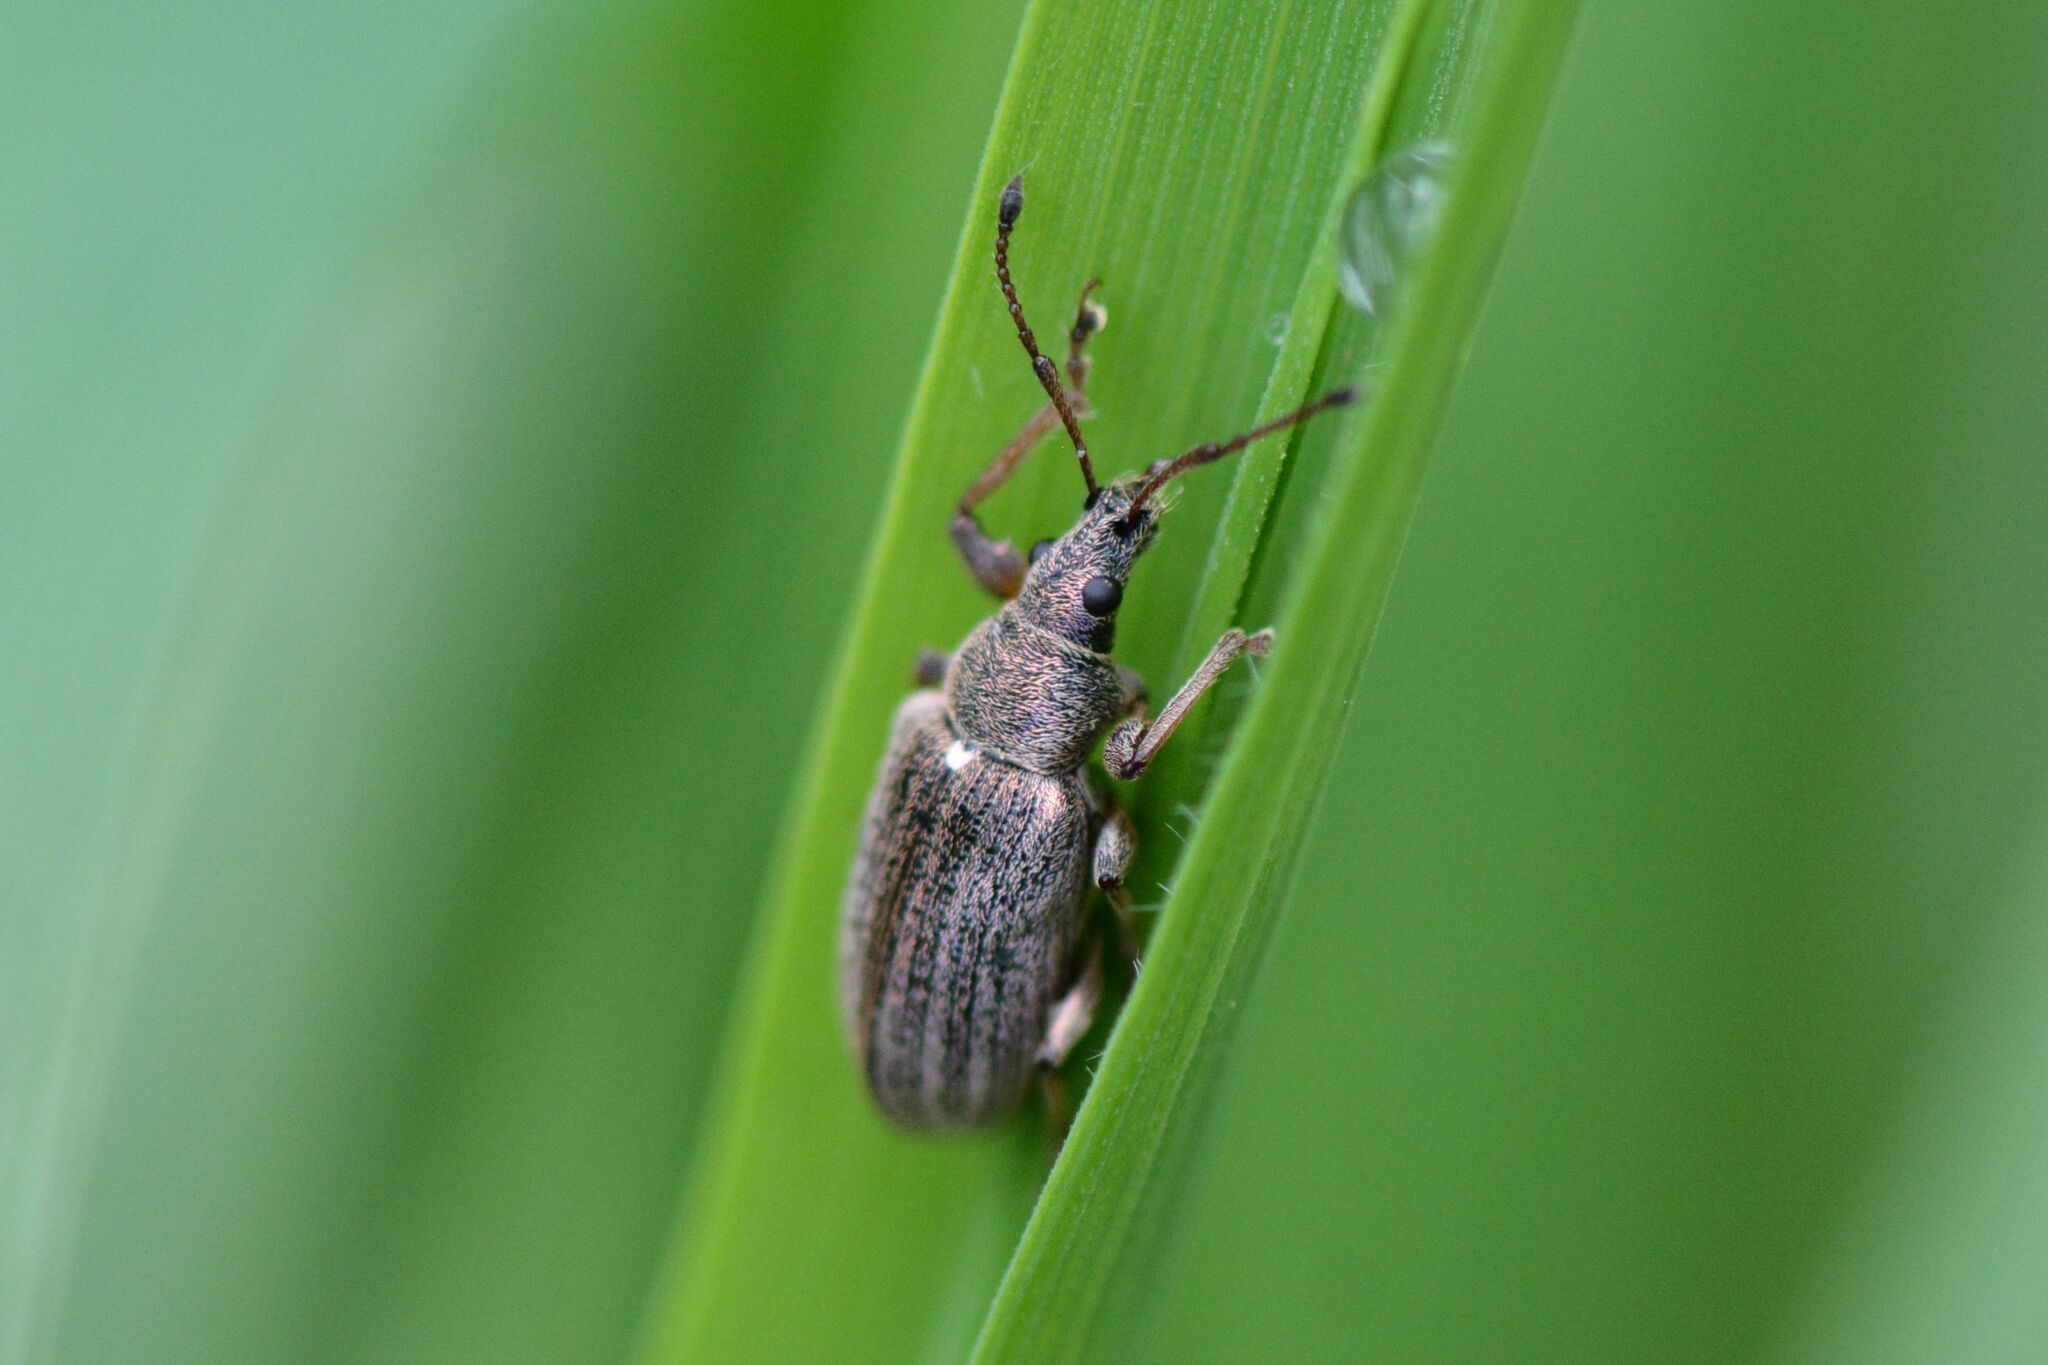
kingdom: Animalia
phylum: Arthropoda
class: Insecta
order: Coleoptera
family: Curculionidae
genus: Phyllobius
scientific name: Phyllobius pyri
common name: Common leaf weevil
